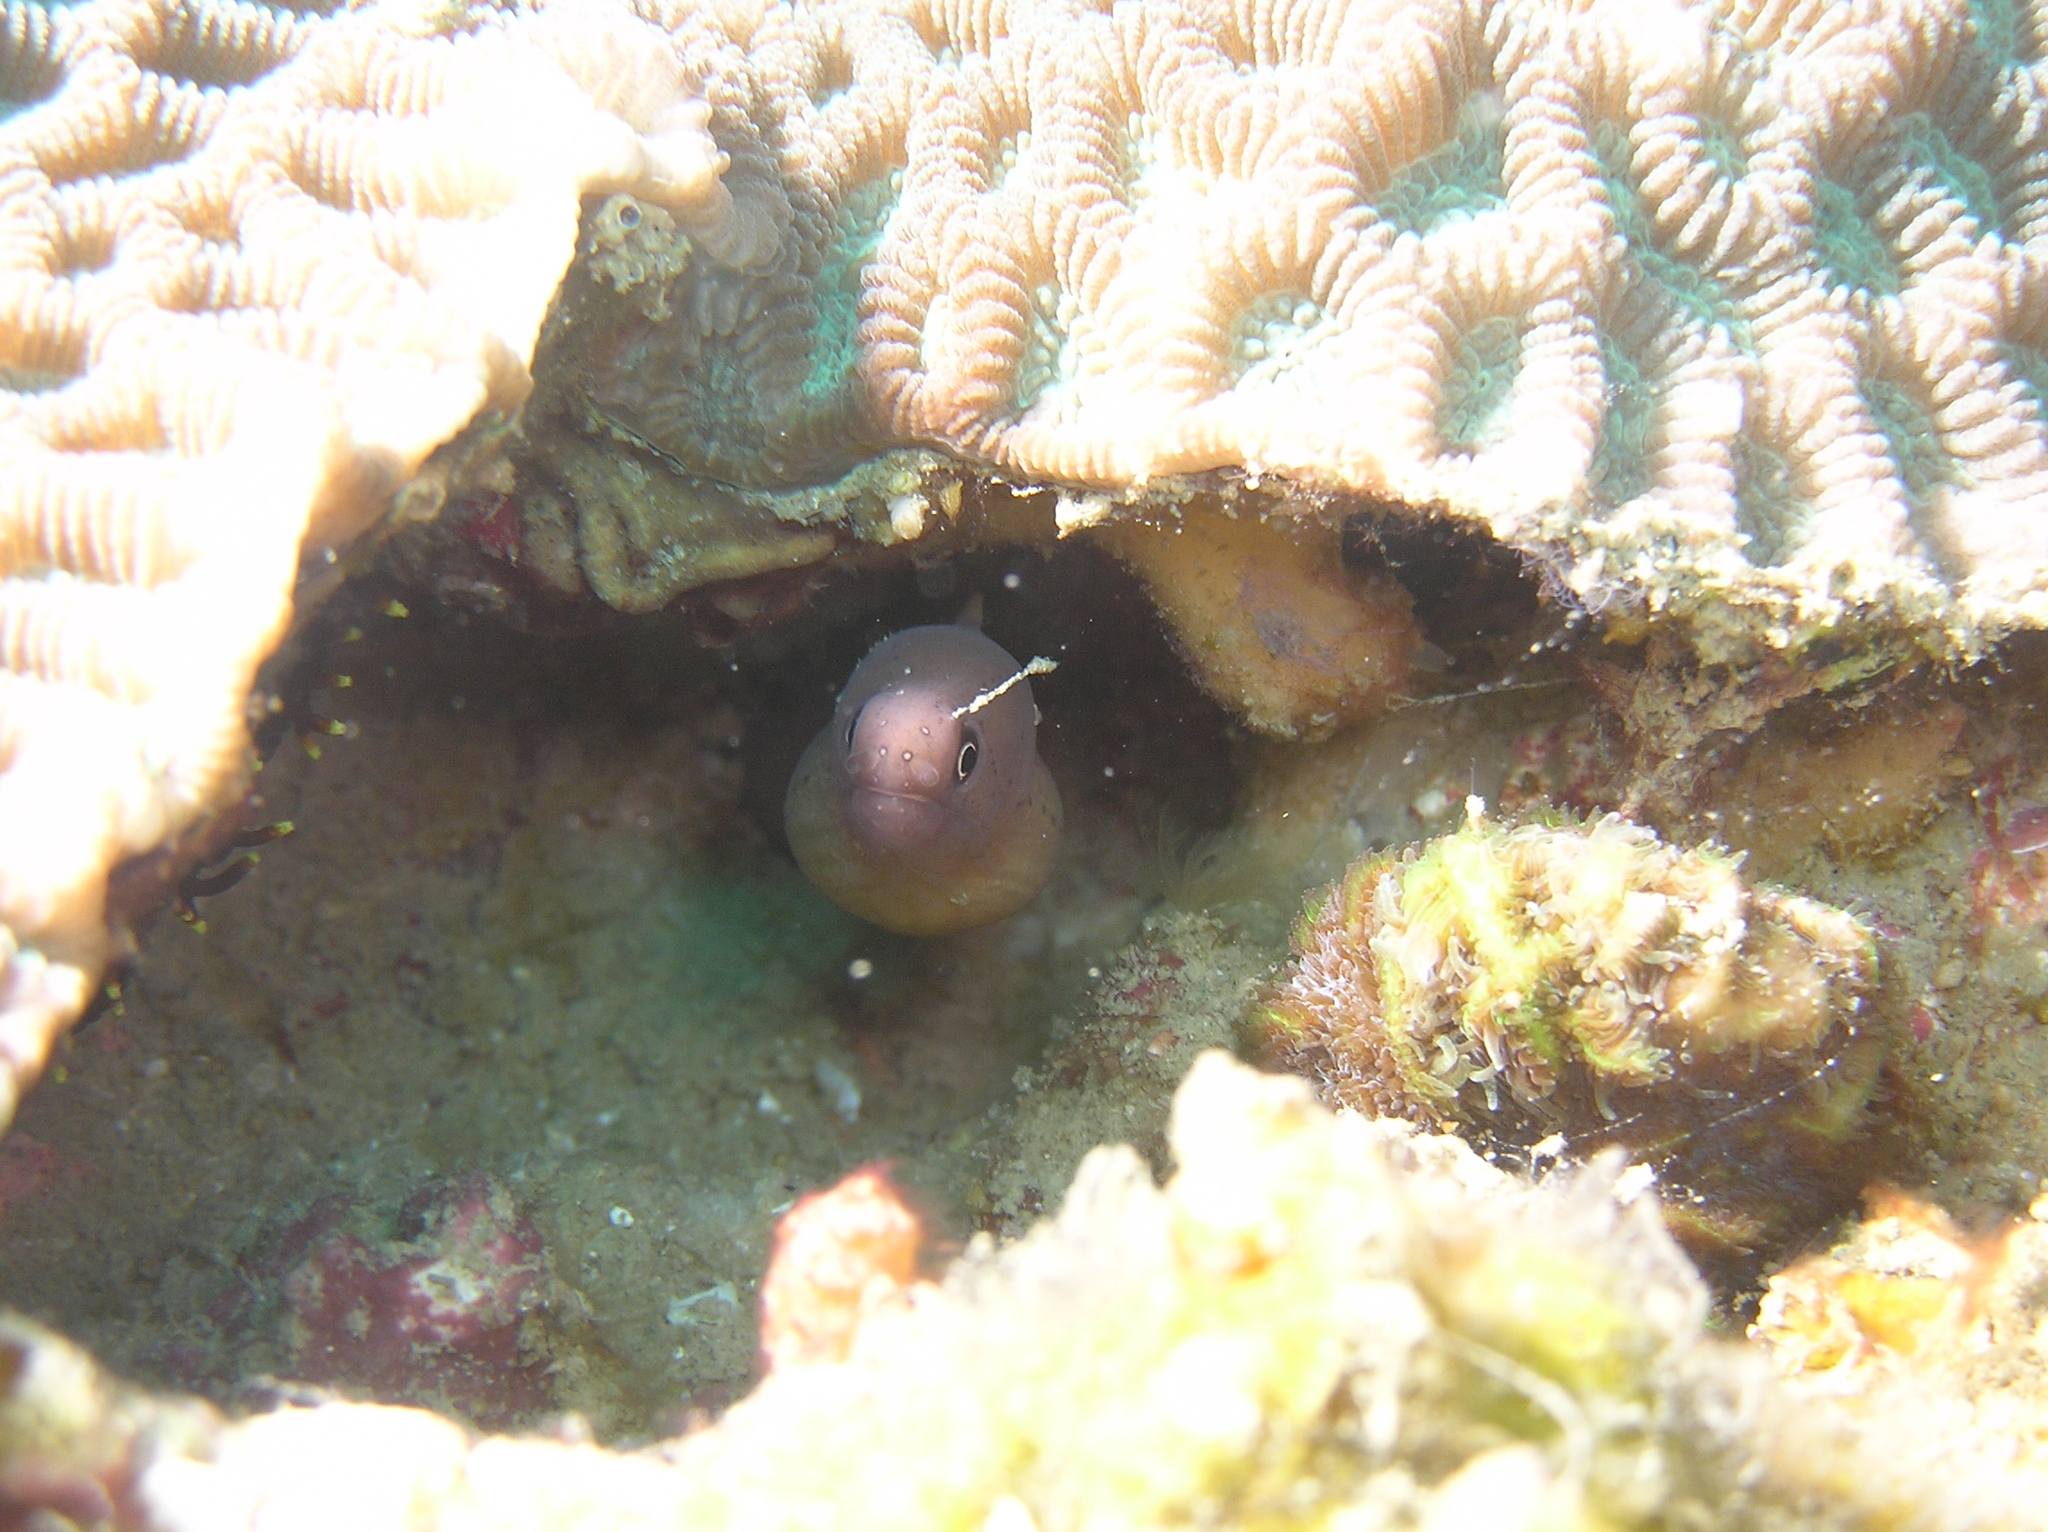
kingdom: Animalia
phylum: Chordata
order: Anguilliformes
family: Muraenidae
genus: Gymnothorax
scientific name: Gymnothorax castlei
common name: Castle's moray
